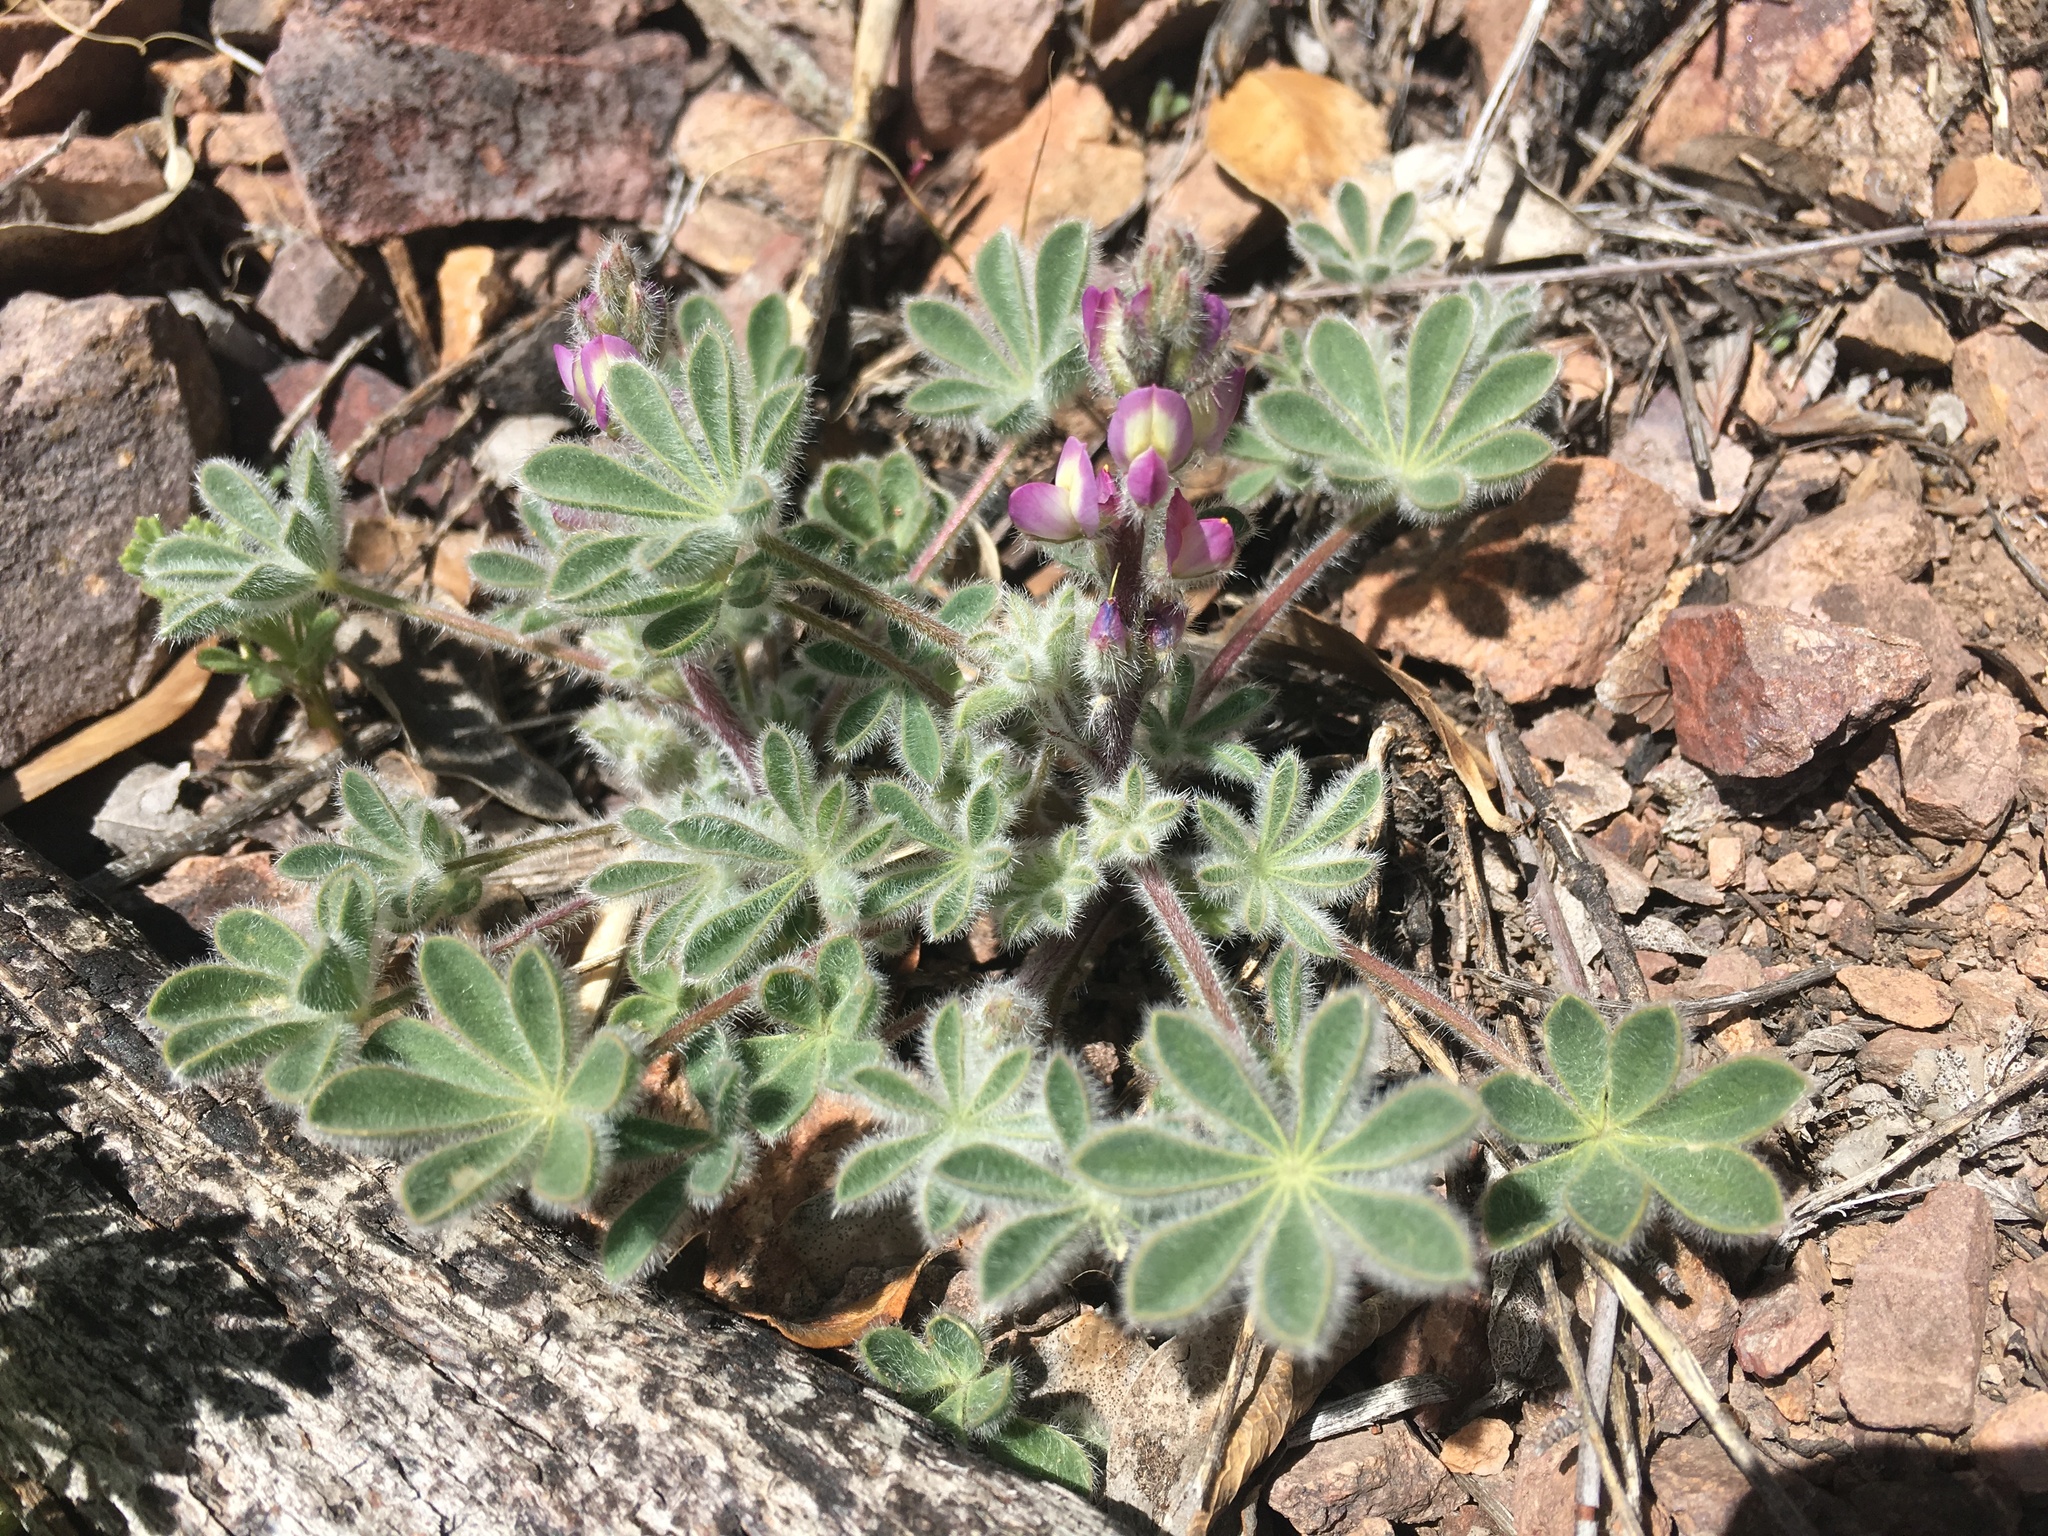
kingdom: Plantae
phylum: Tracheophyta
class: Magnoliopsida
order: Fabales
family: Fabaceae
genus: Lupinus
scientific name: Lupinus concinnus
